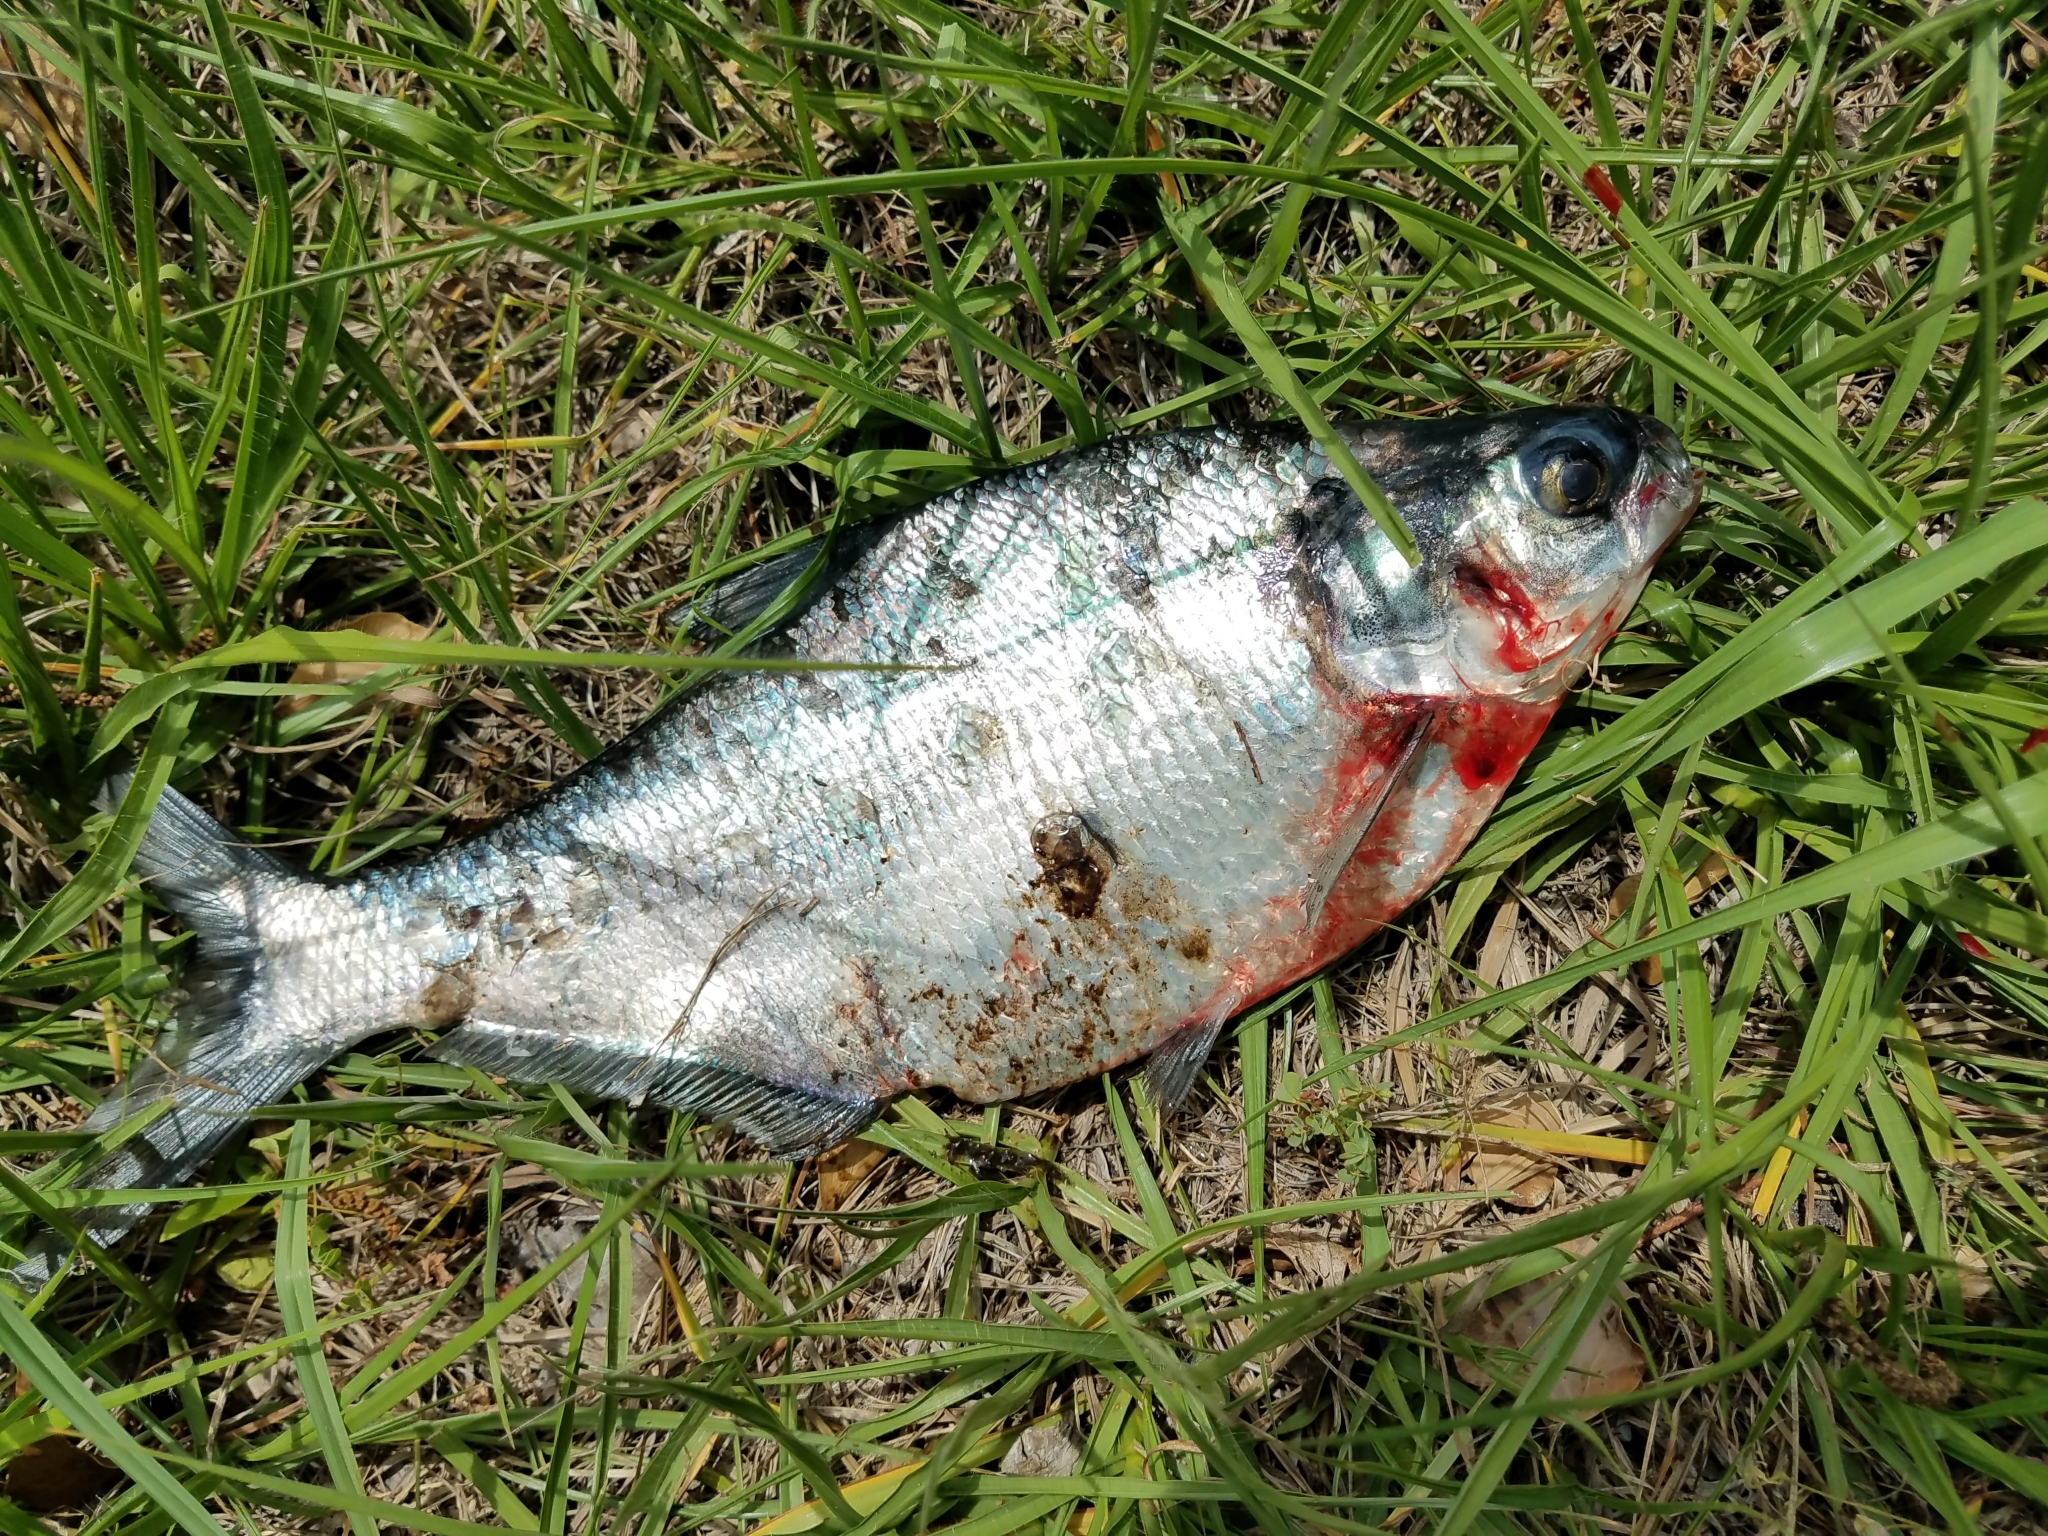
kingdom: Animalia
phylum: Chordata
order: Clupeiformes
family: Clupeidae
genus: Dorosoma
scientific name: Dorosoma cepedianum
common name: Gizzard shad
